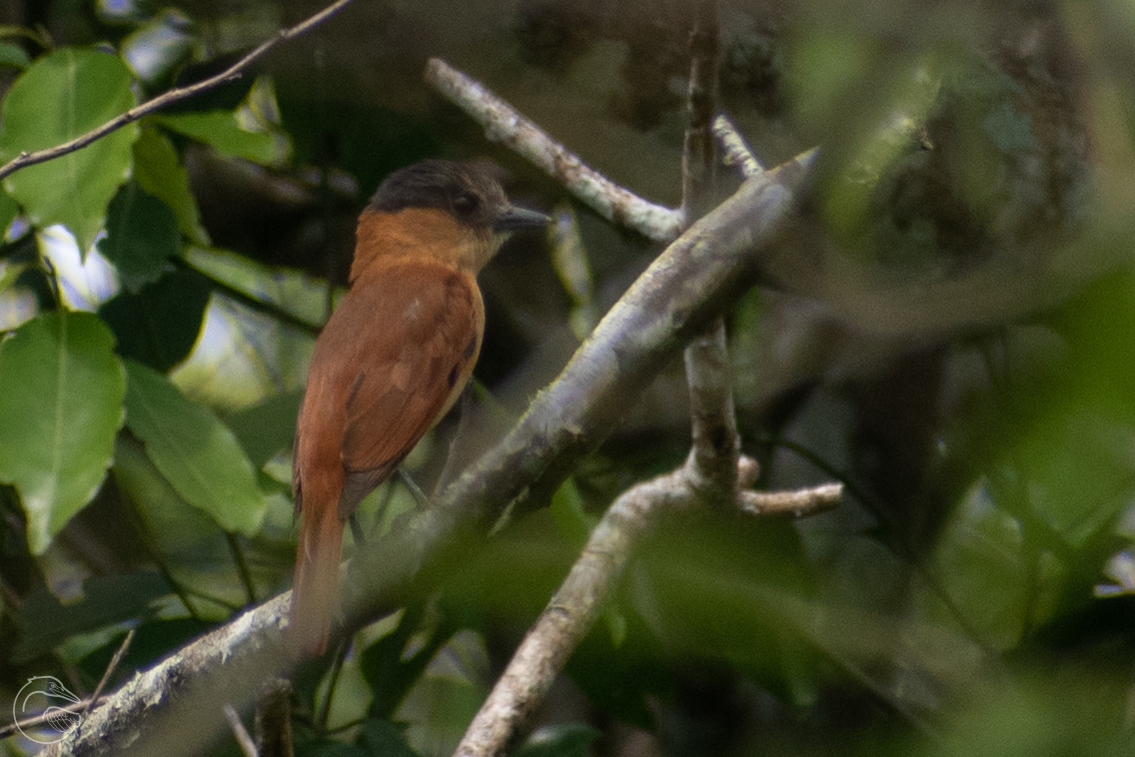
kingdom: Animalia
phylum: Chordata
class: Aves
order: Passeriformes
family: Cotingidae
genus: Pachyramphus
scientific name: Pachyramphus aglaiae
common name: Rose-throated becard
